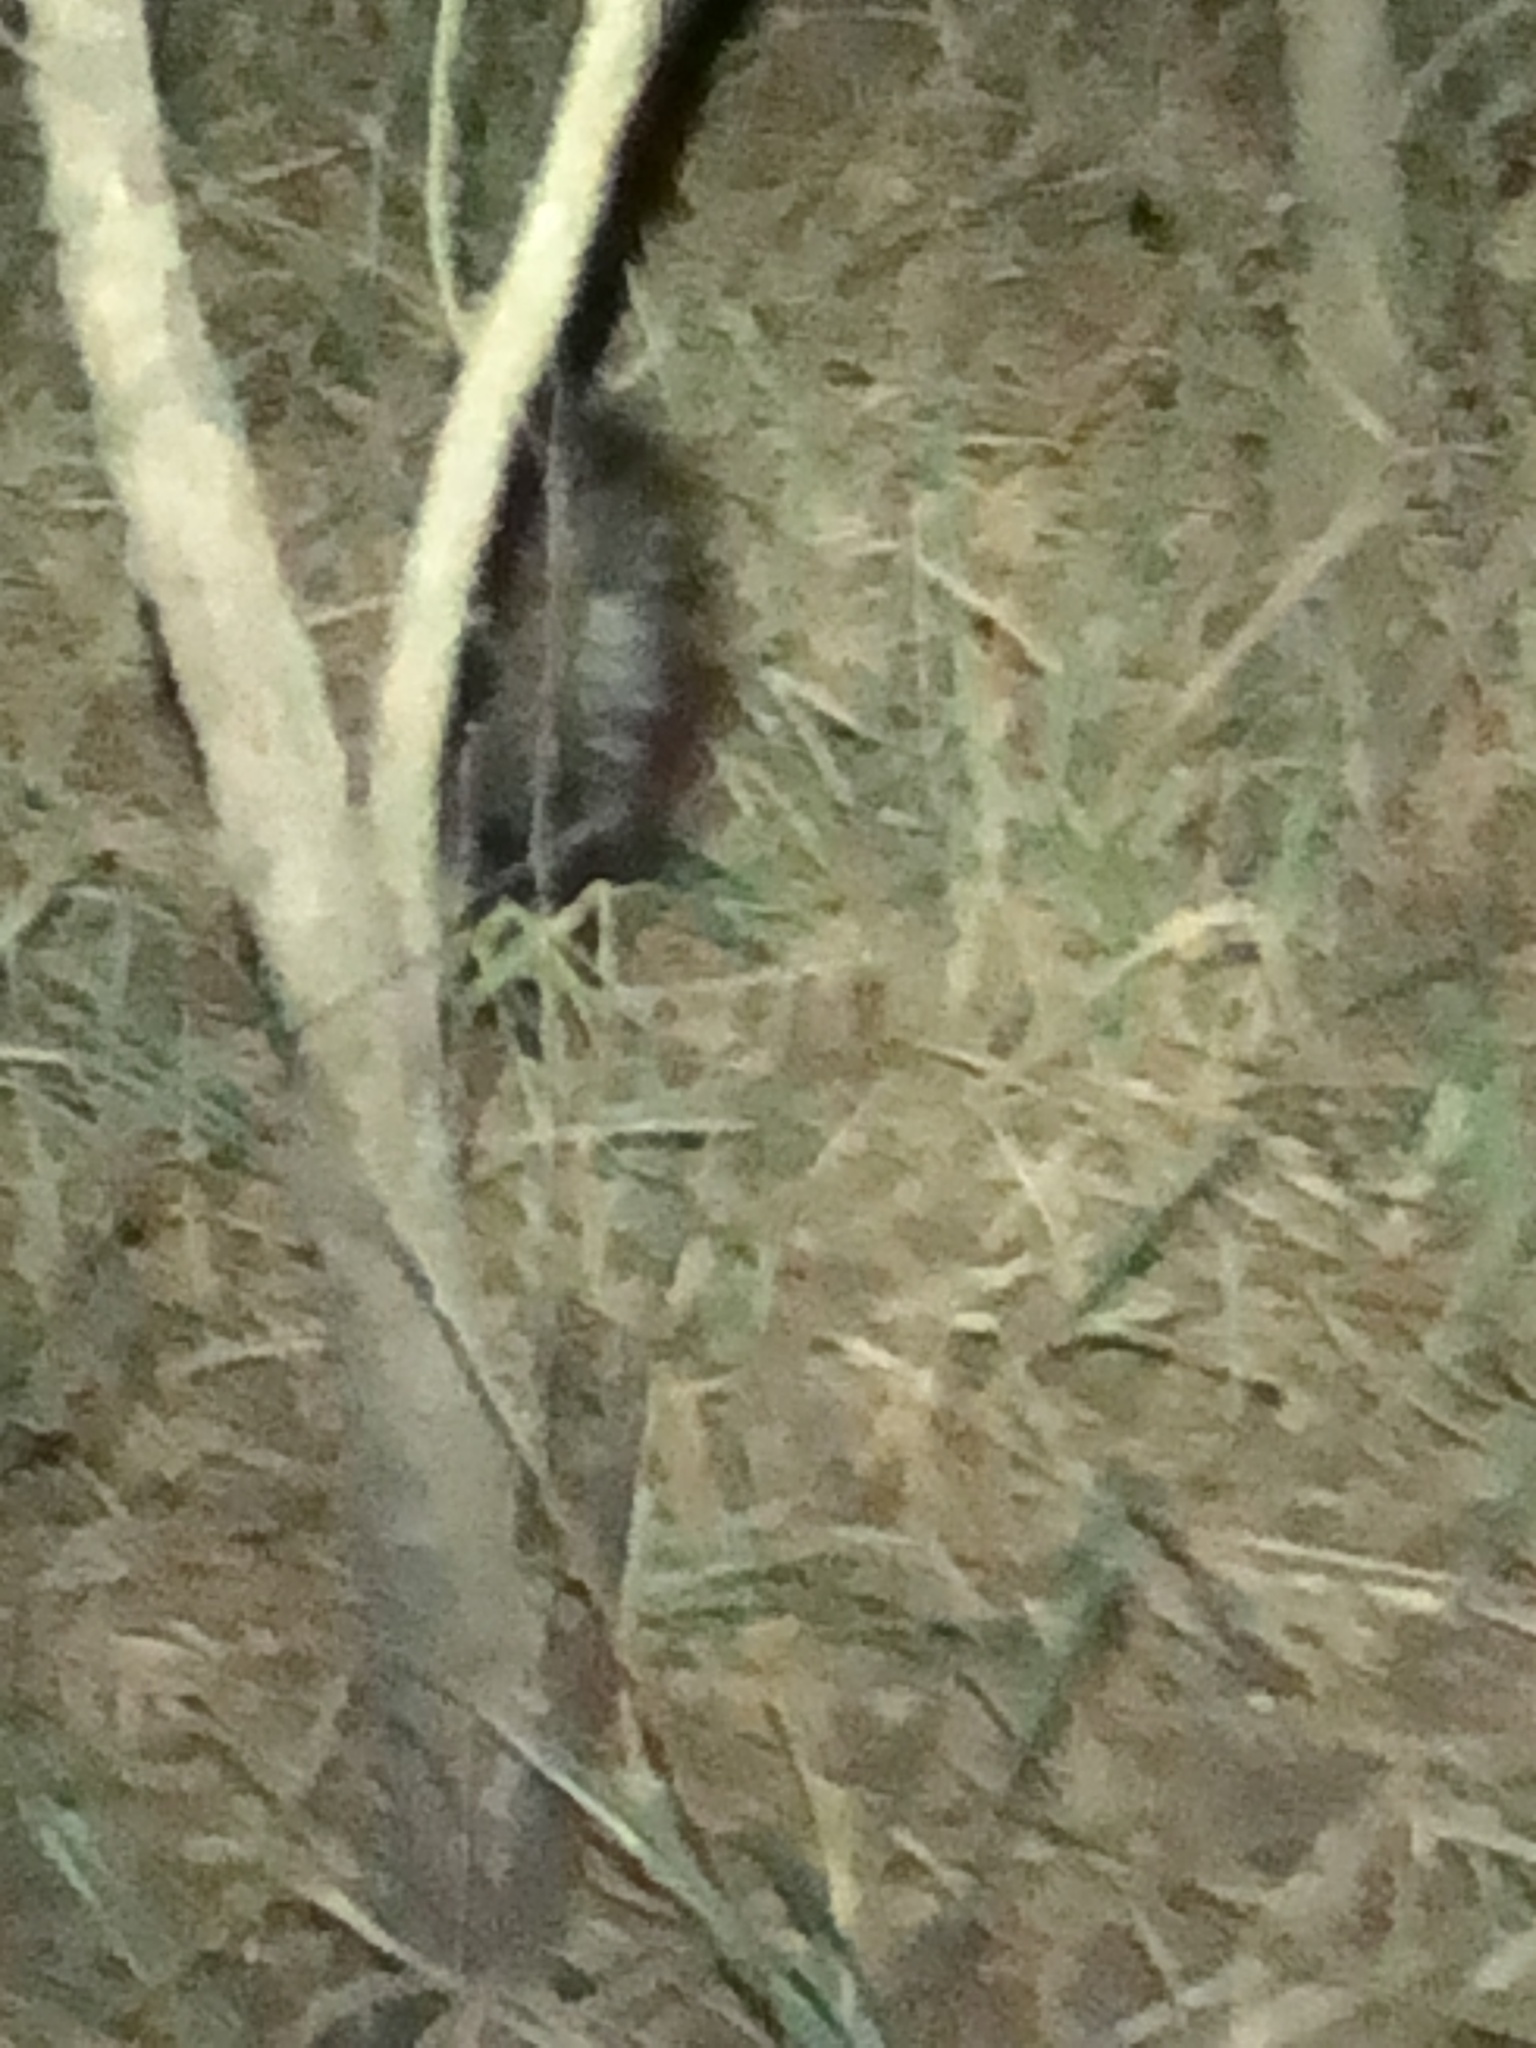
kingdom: Animalia
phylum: Chordata
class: Mammalia
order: Carnivora
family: Mephitidae
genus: Mephitis
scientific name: Mephitis mephitis
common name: Striped skunk
